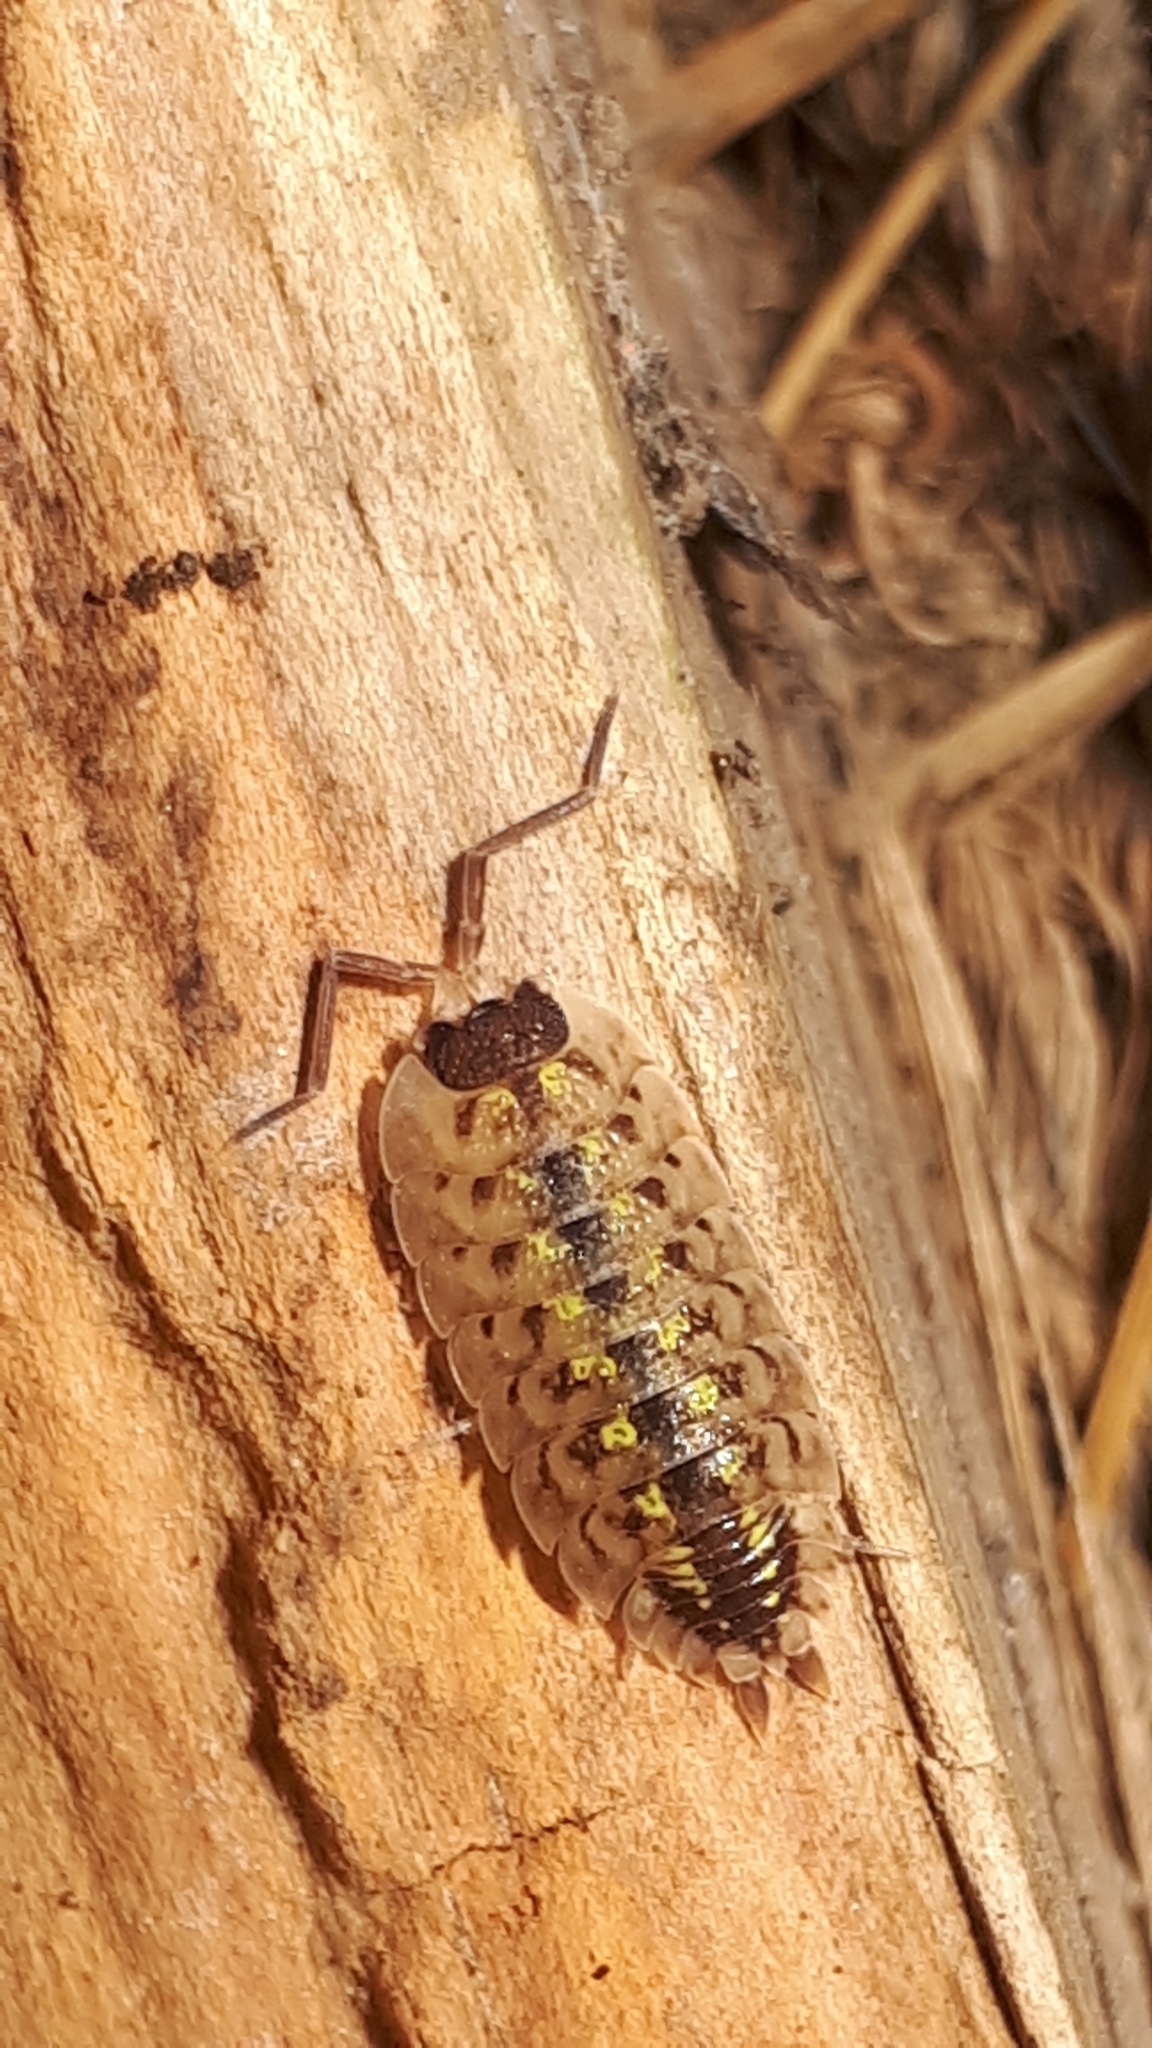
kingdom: Animalia
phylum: Arthropoda
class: Malacostraca
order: Isopoda
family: Porcellionidae
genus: Porcellio
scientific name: Porcellio spinicornis
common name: Painted woodlouse
